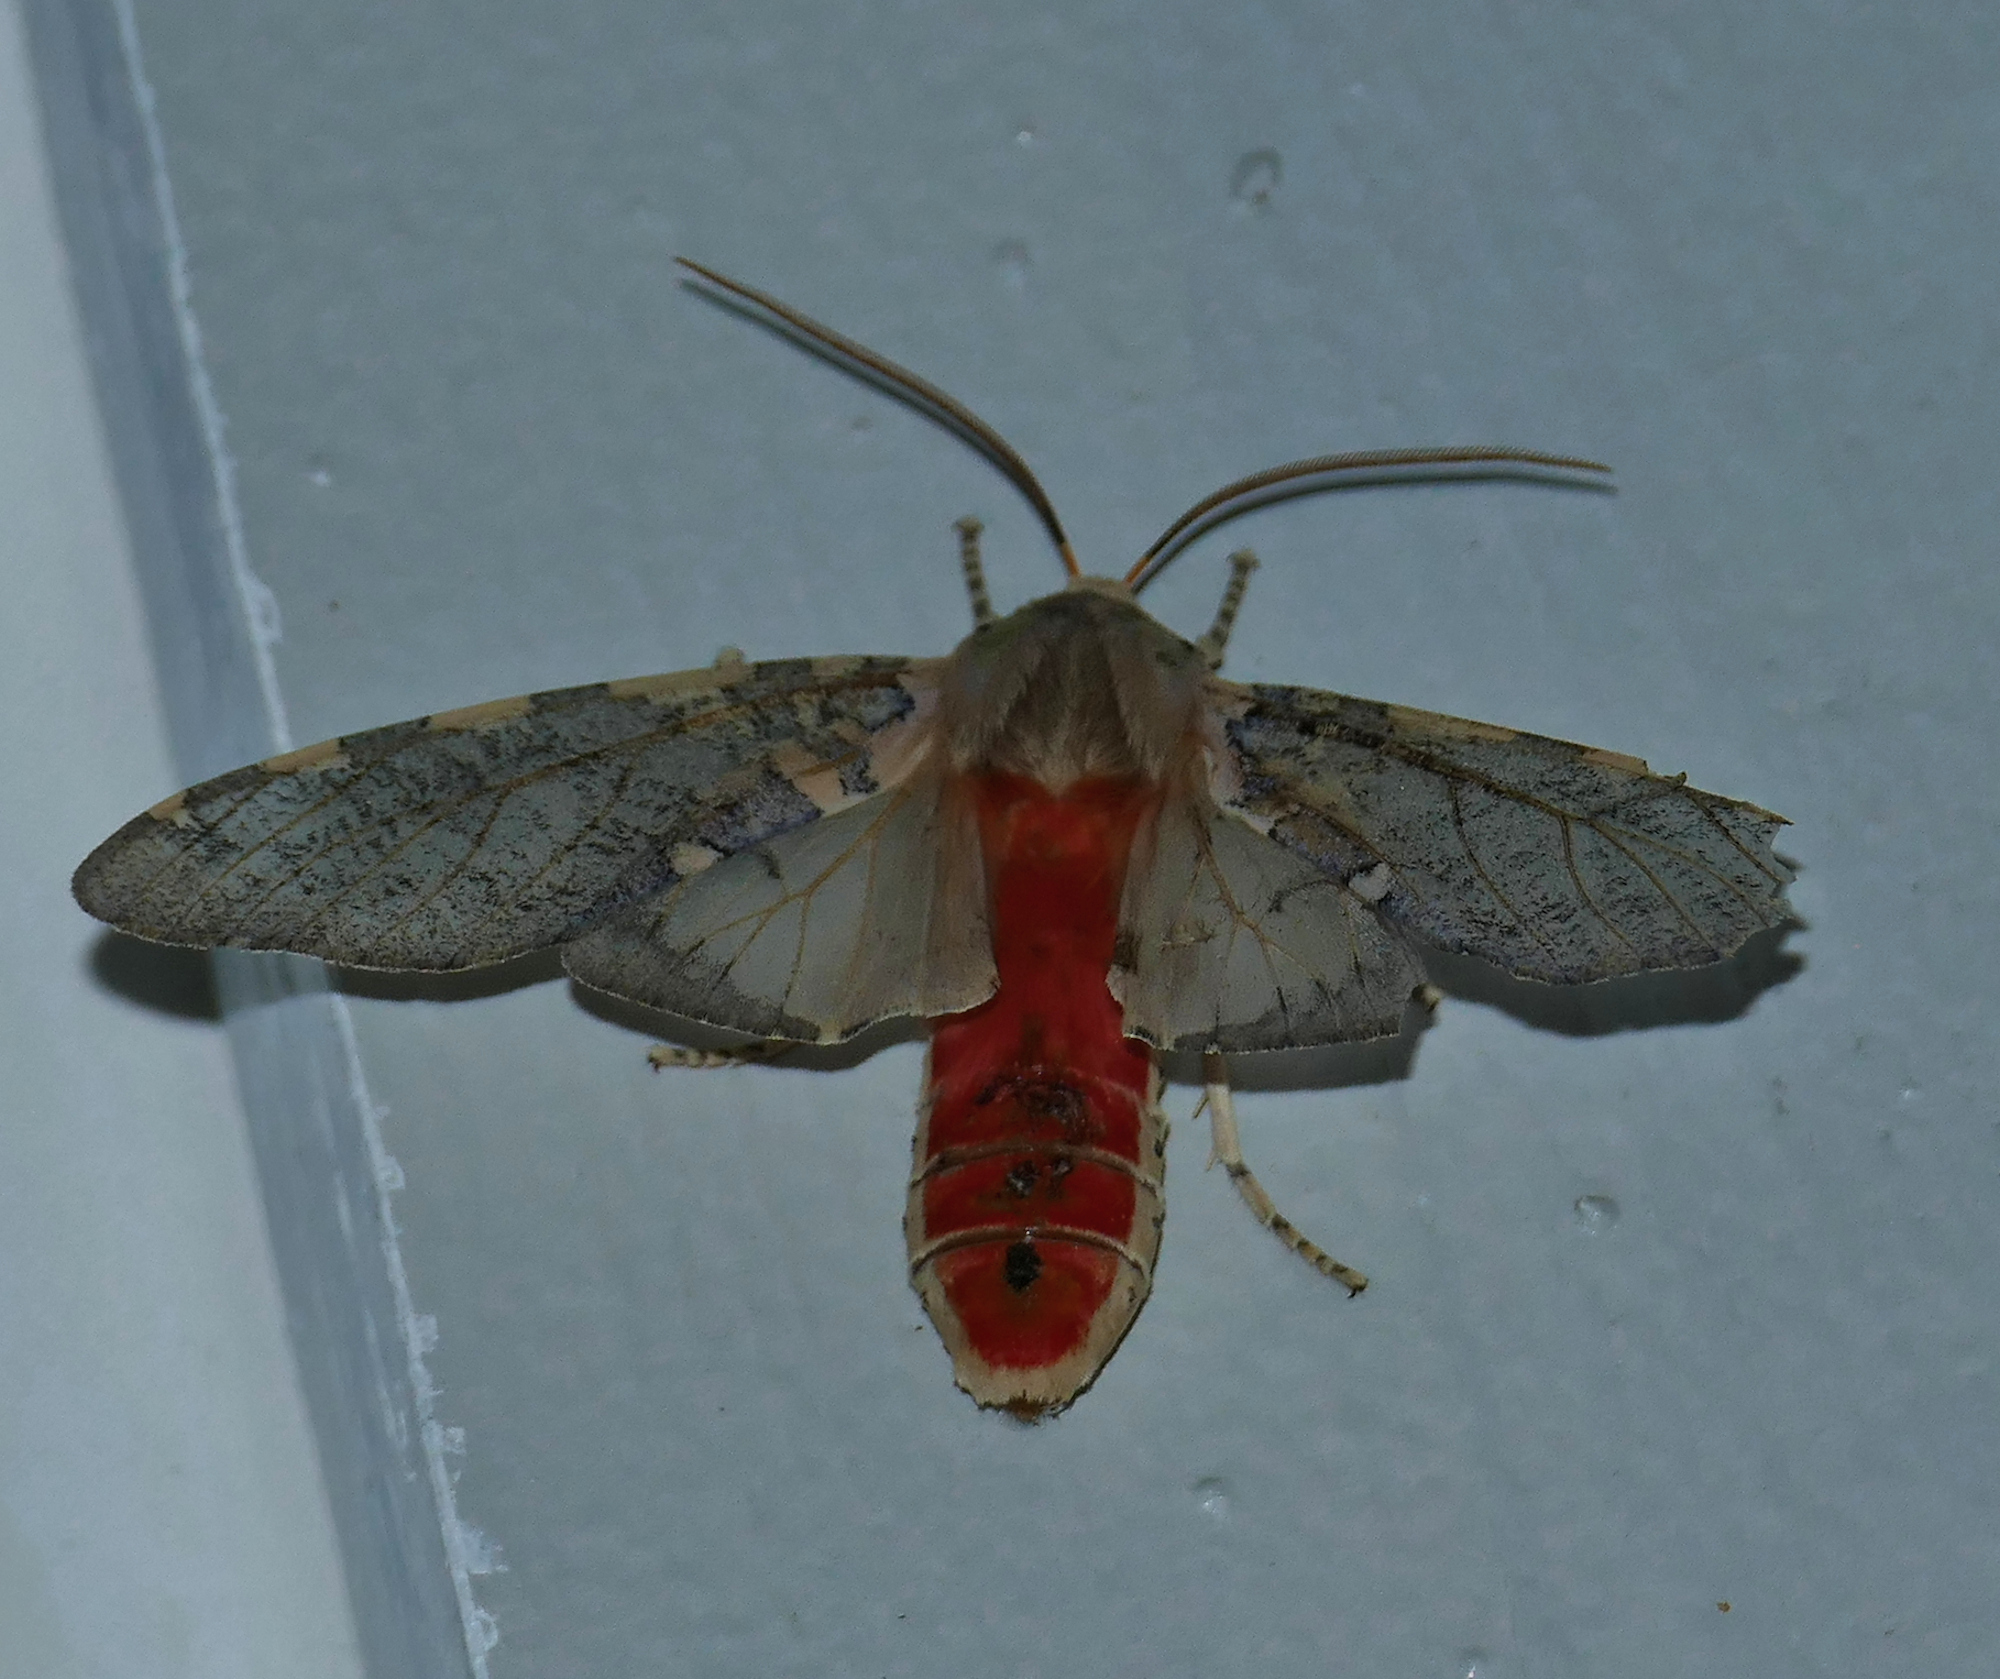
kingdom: Animalia
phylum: Arthropoda
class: Insecta
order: Lepidoptera
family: Erebidae
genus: Hemihyalea
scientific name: Hemihyalea labecula
